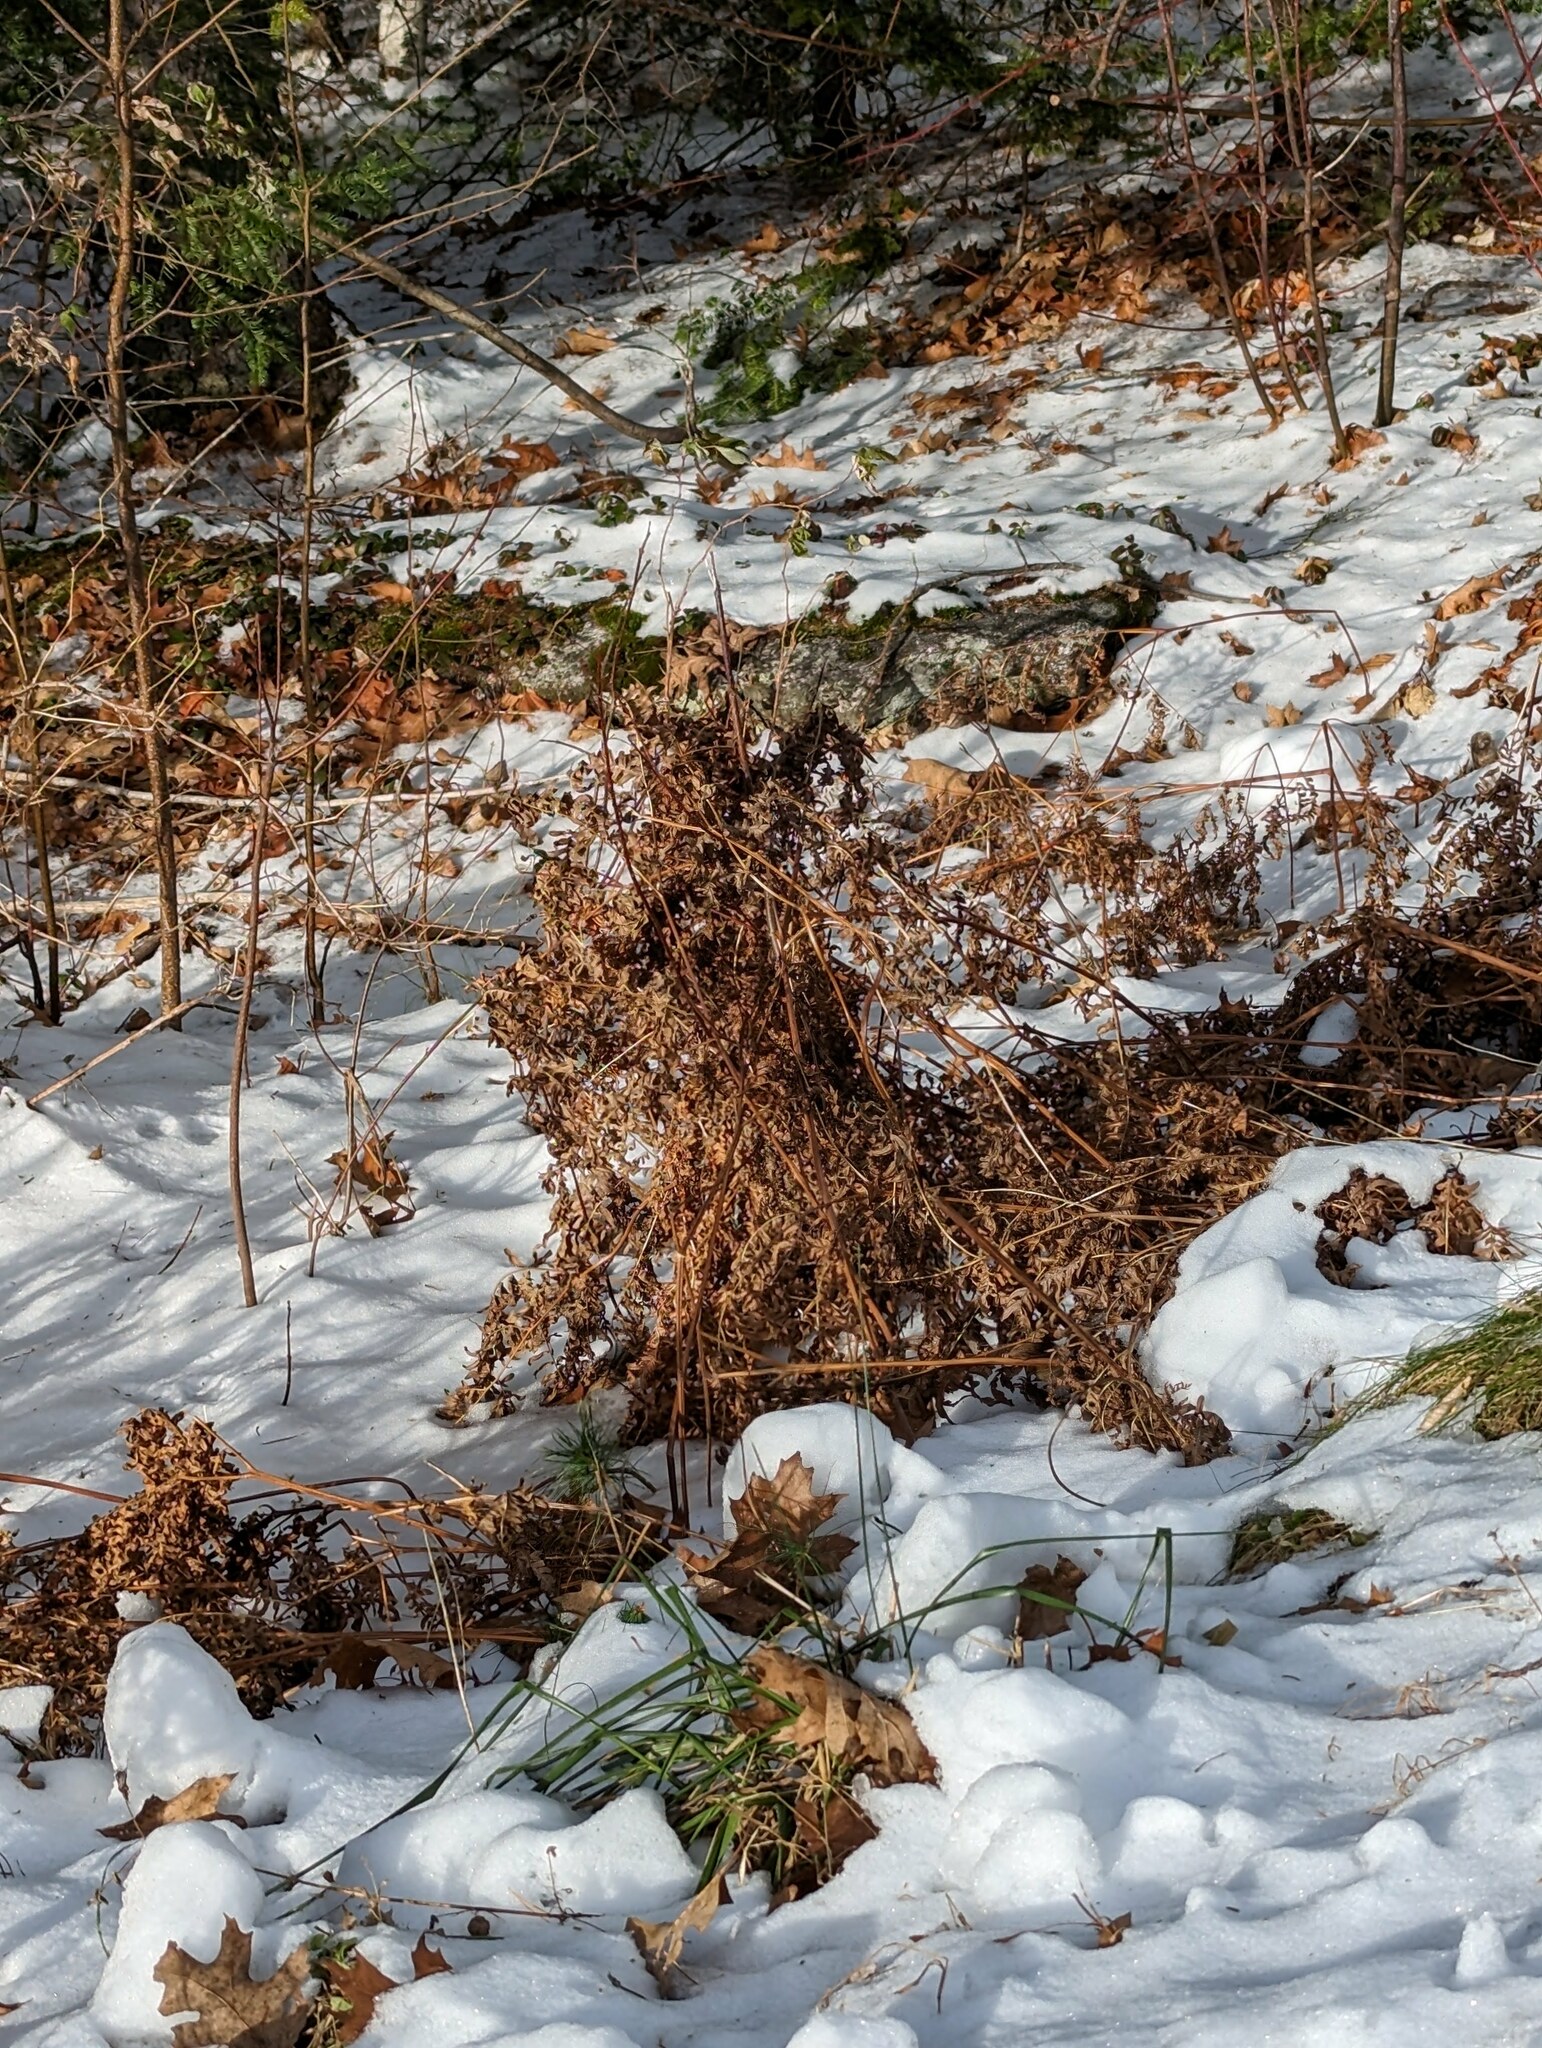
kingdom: Plantae
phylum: Tracheophyta
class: Polypodiopsida
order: Polypodiales
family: Dennstaedtiaceae
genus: Pteridium
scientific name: Pteridium aquilinum
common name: Bracken
